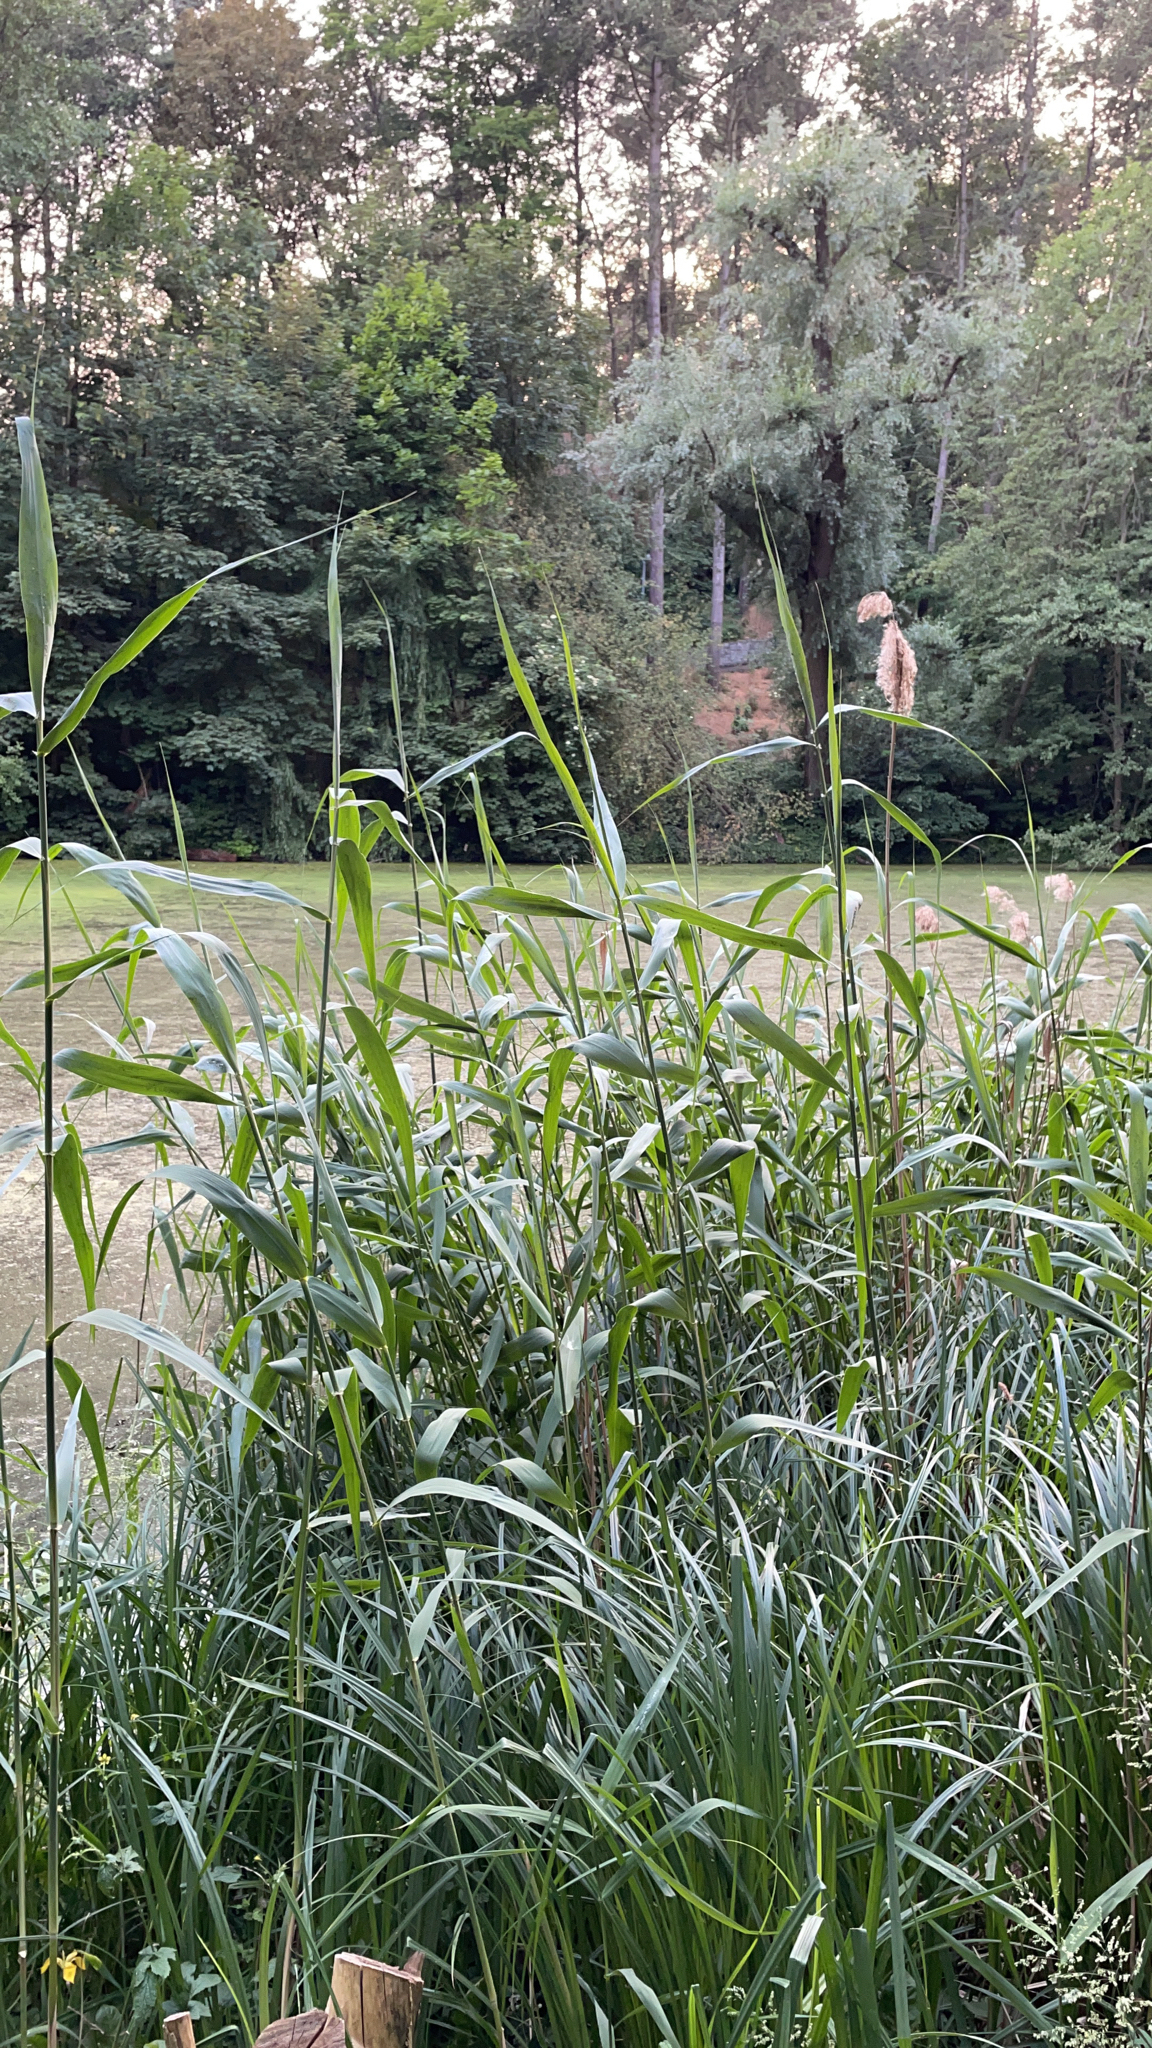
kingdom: Plantae
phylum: Tracheophyta
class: Liliopsida
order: Poales
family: Poaceae
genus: Phragmites
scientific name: Phragmites australis
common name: Common reed
